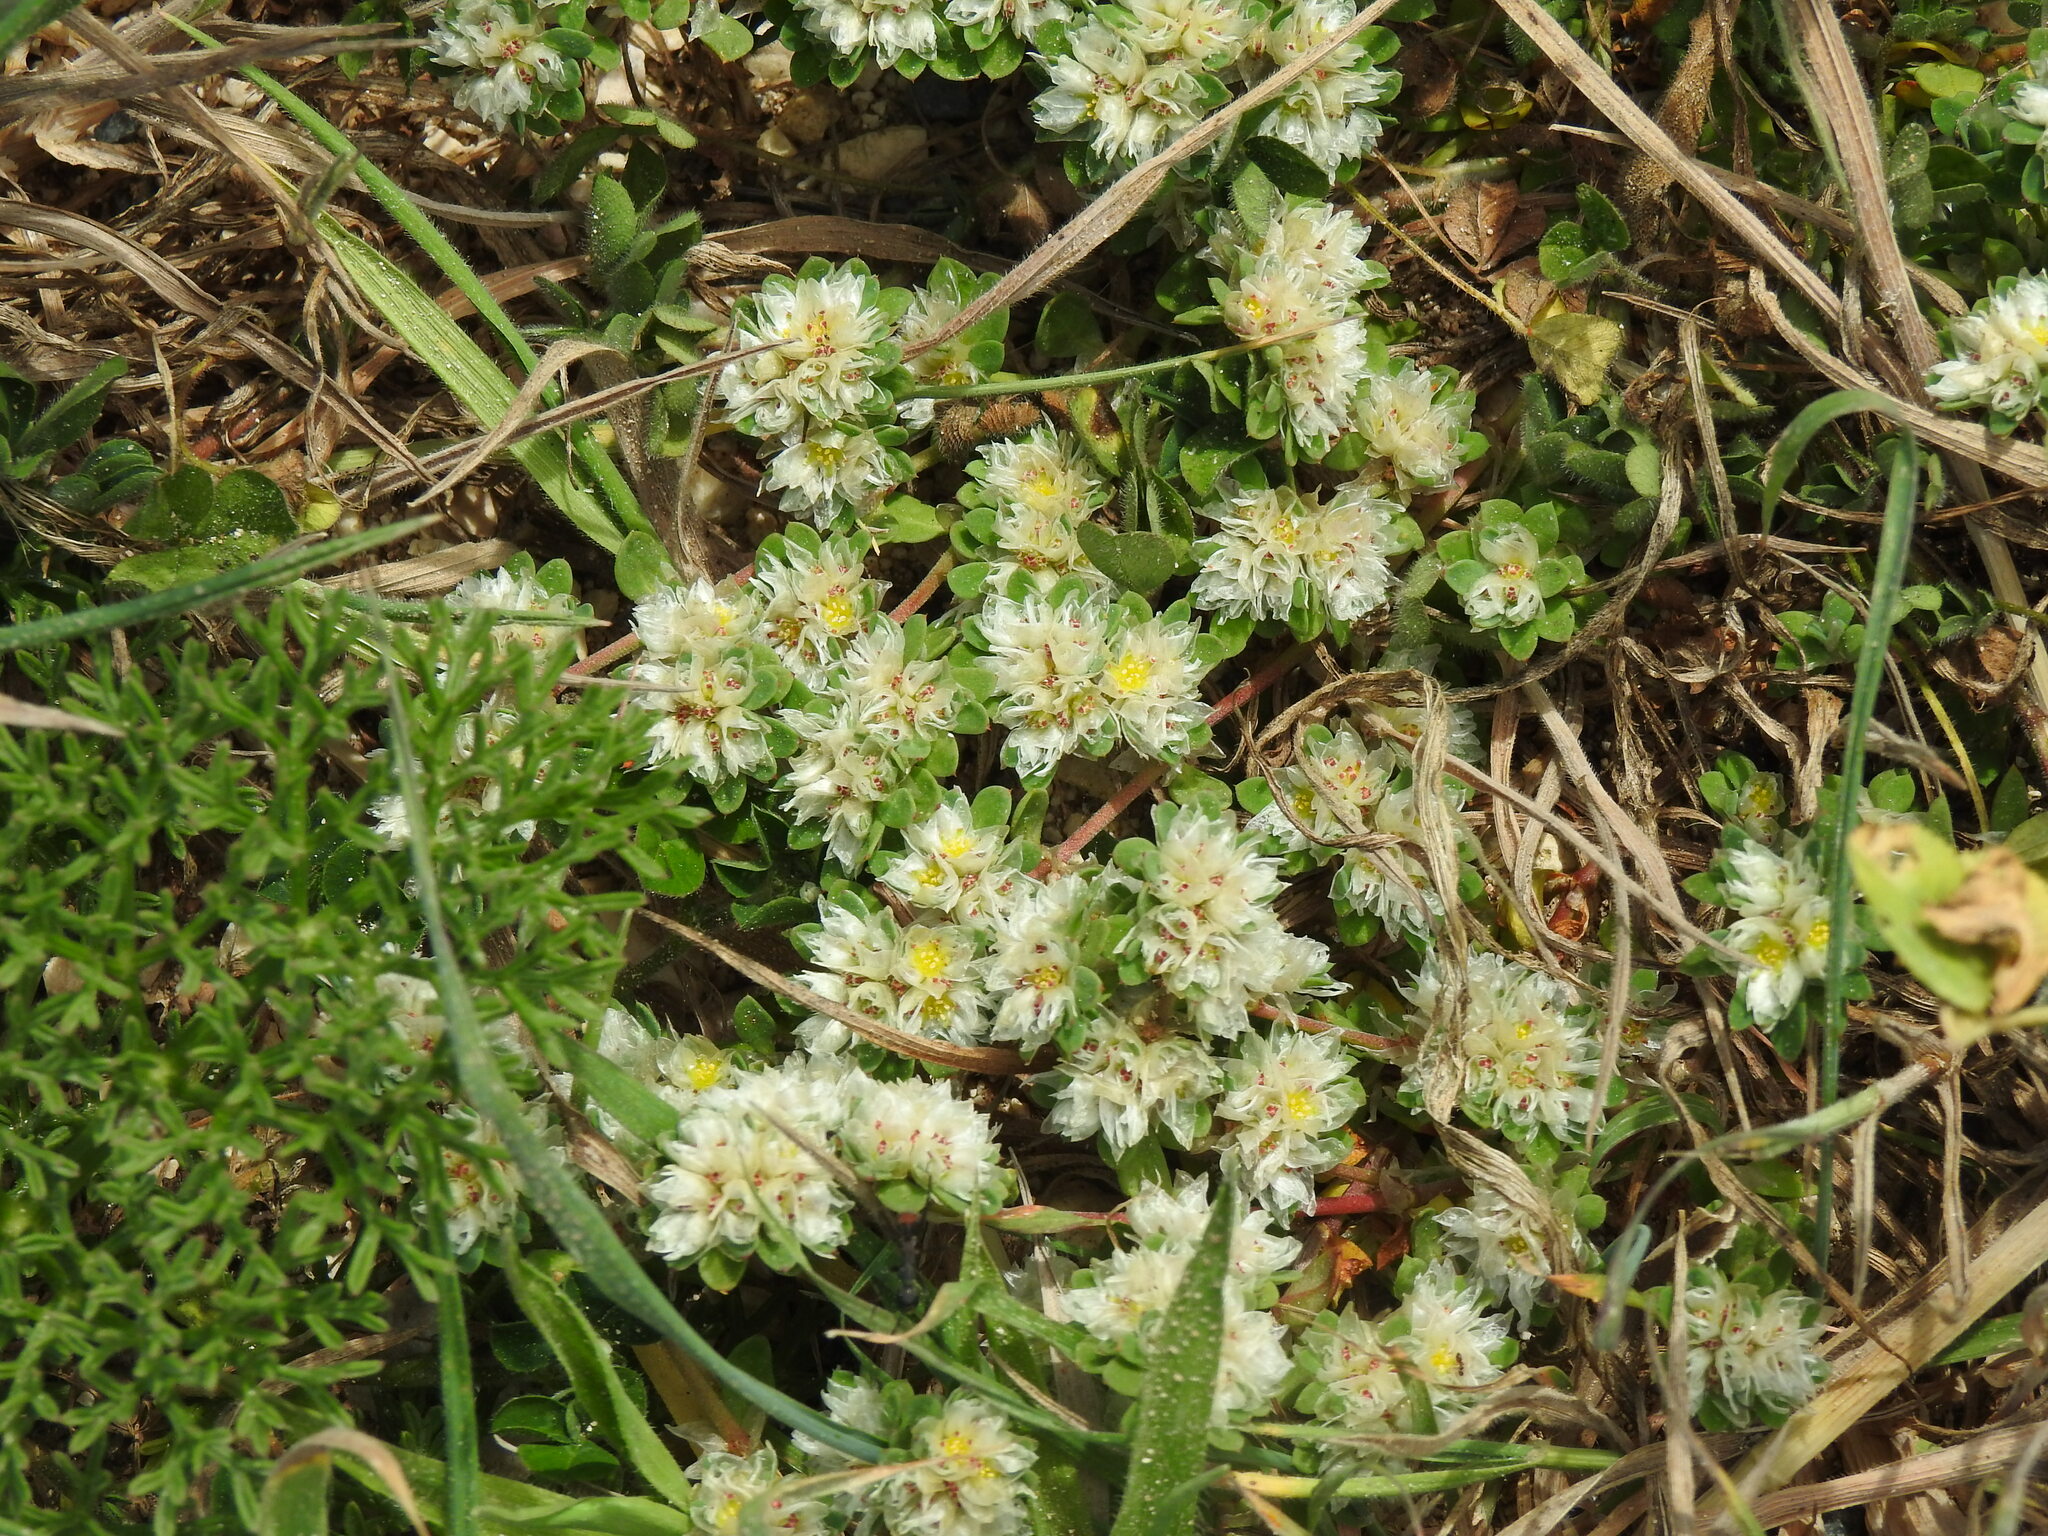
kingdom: Plantae
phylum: Tracheophyta
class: Magnoliopsida
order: Caryophyllales
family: Caryophyllaceae
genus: Paronychia
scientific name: Paronychia argentea
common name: Silver nailroot
